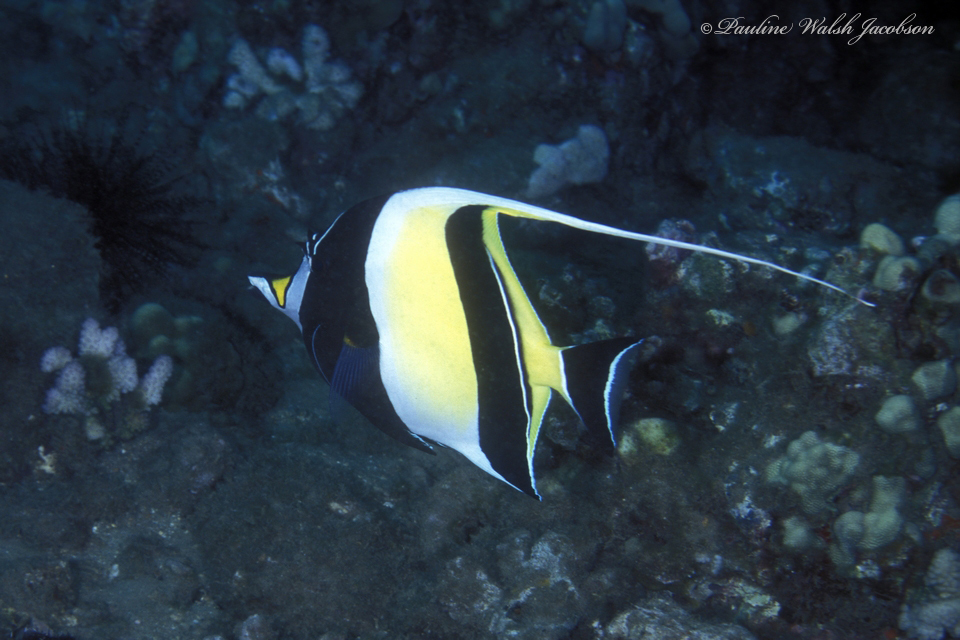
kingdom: Animalia
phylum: Chordata
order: Perciformes
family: Zanclidae
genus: Zanclus
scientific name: Zanclus cornutus
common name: Moorish idol
